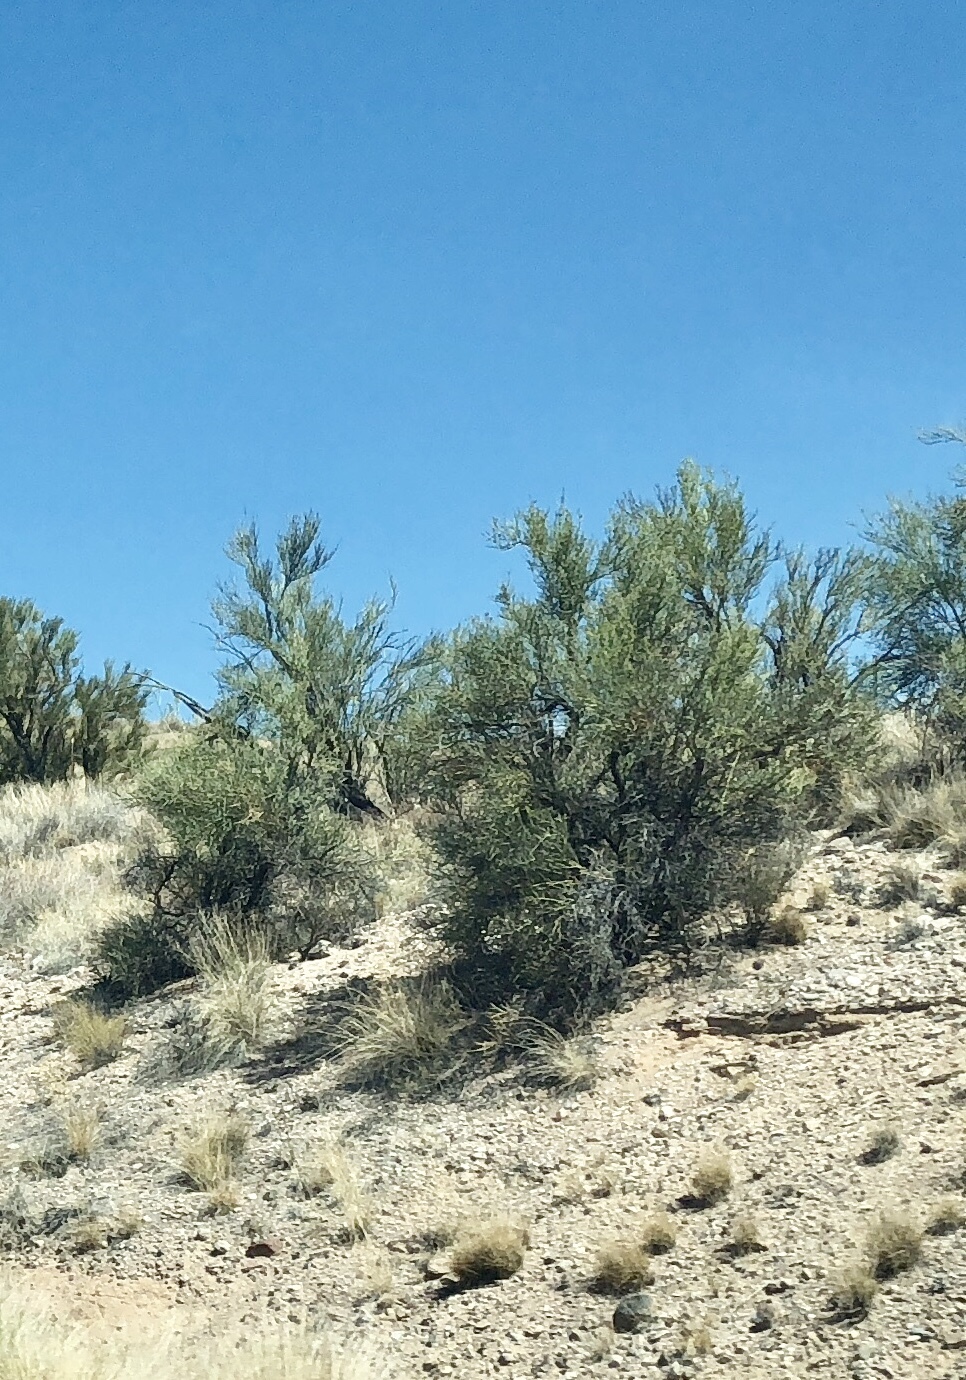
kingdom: Plantae
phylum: Tracheophyta
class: Magnoliopsida
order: Celastrales
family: Celastraceae
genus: Canotia
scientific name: Canotia holacantha
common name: Crucifixion thorns
